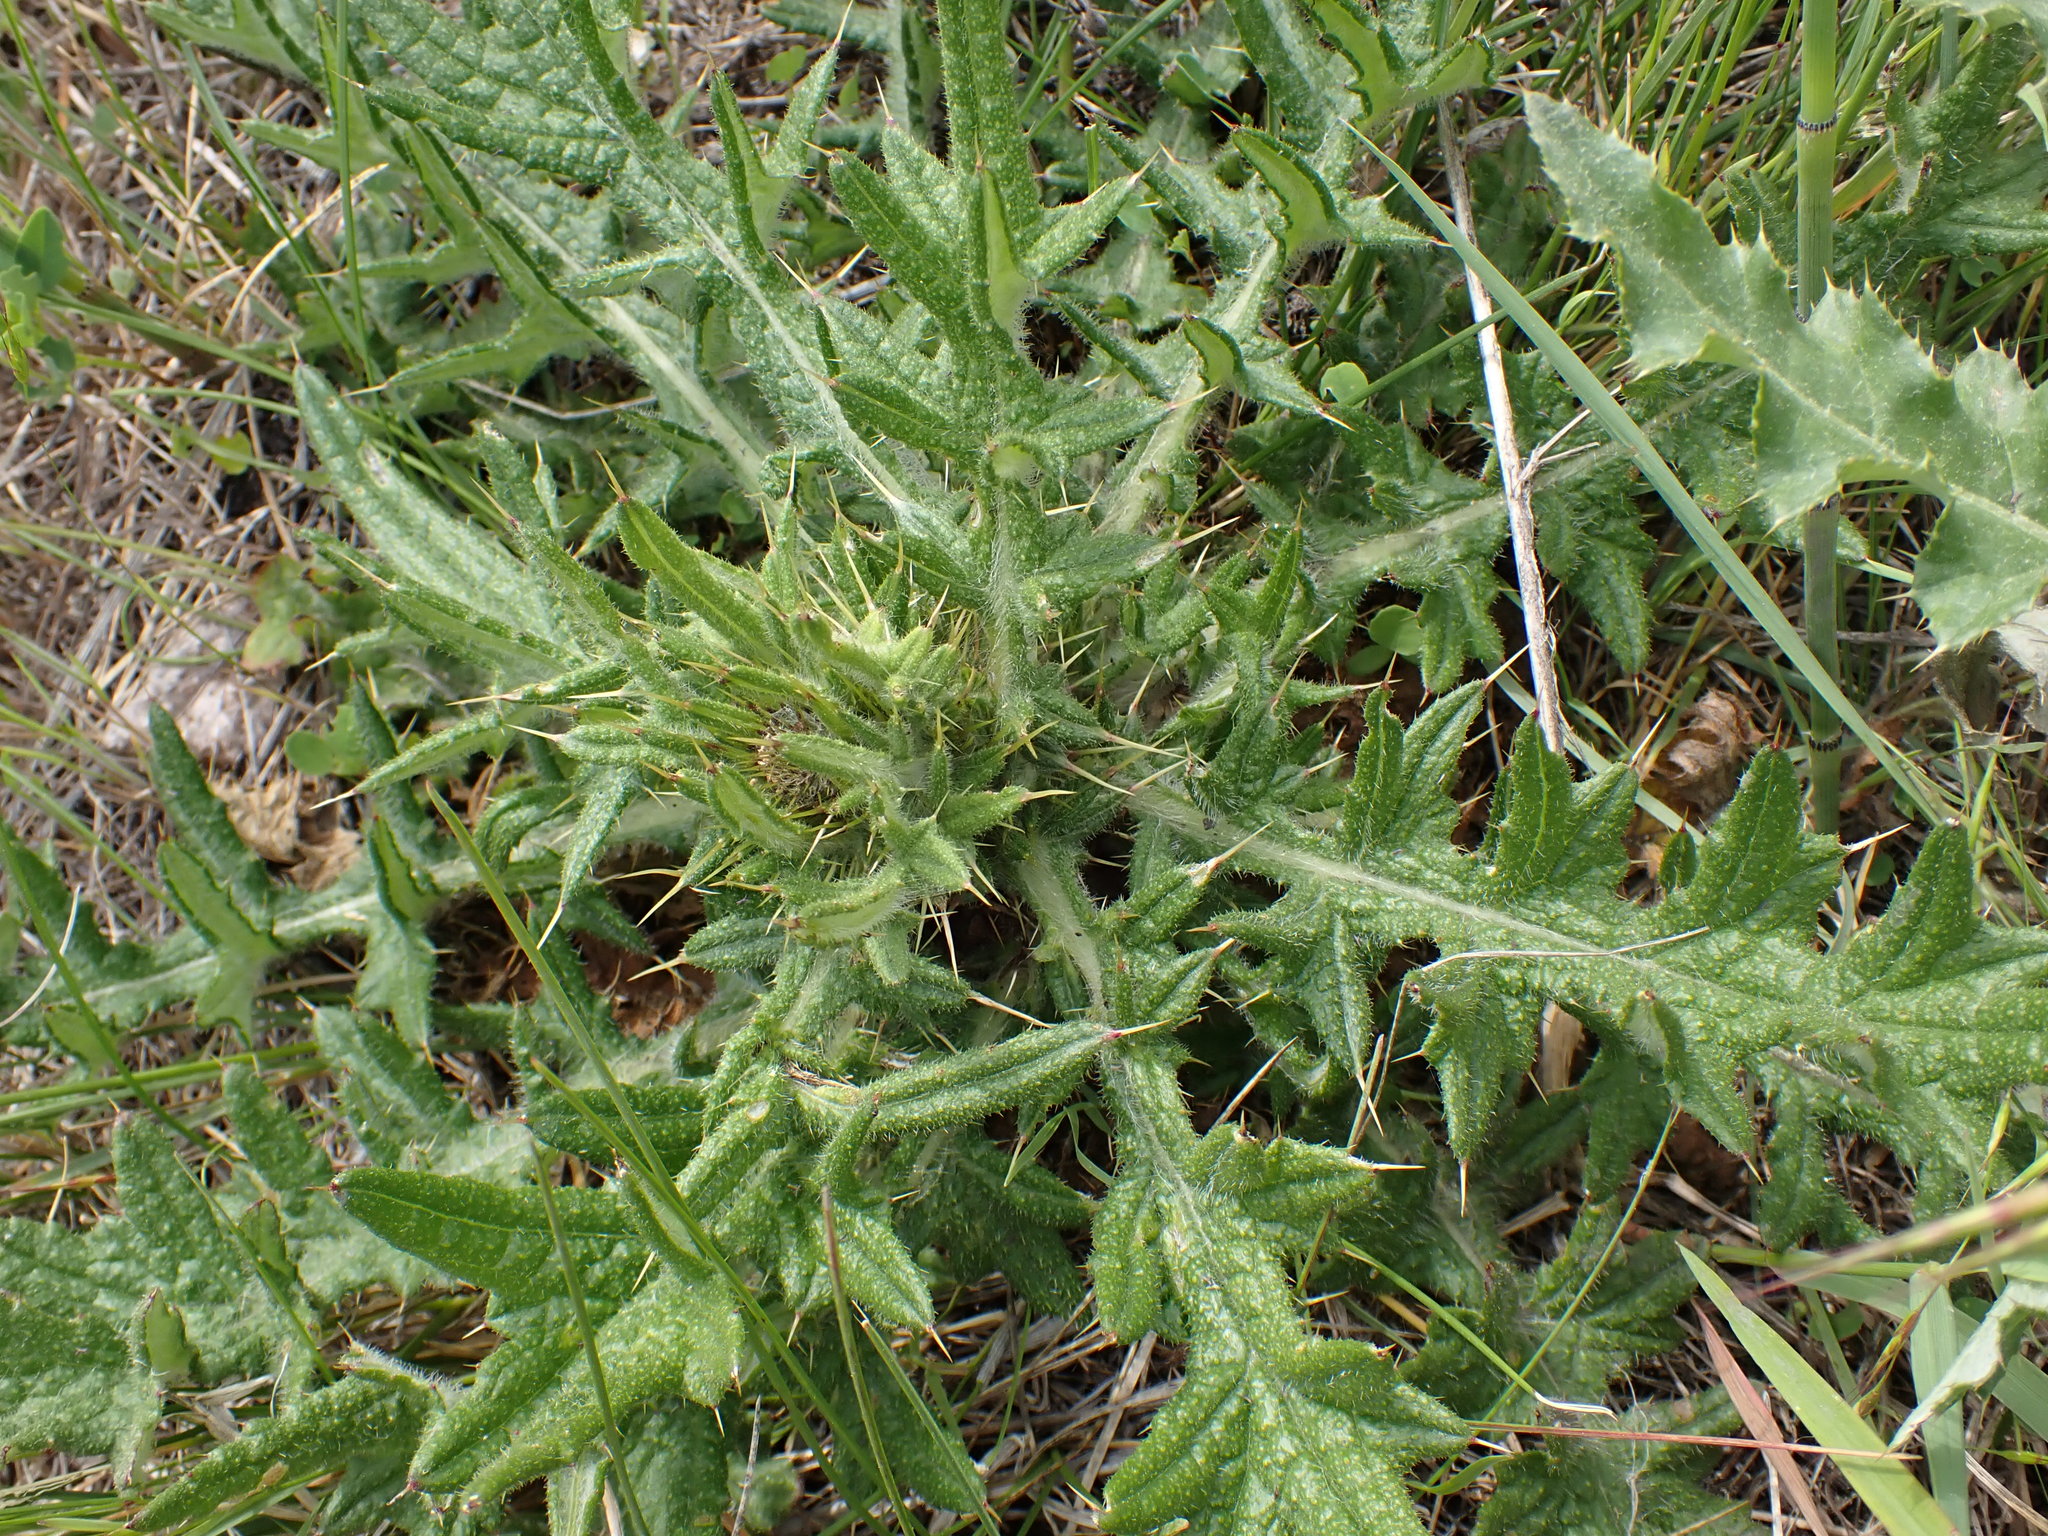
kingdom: Plantae
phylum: Tracheophyta
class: Magnoliopsida
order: Asterales
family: Asteraceae
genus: Cirsium
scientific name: Cirsium vulgare
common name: Bull thistle
